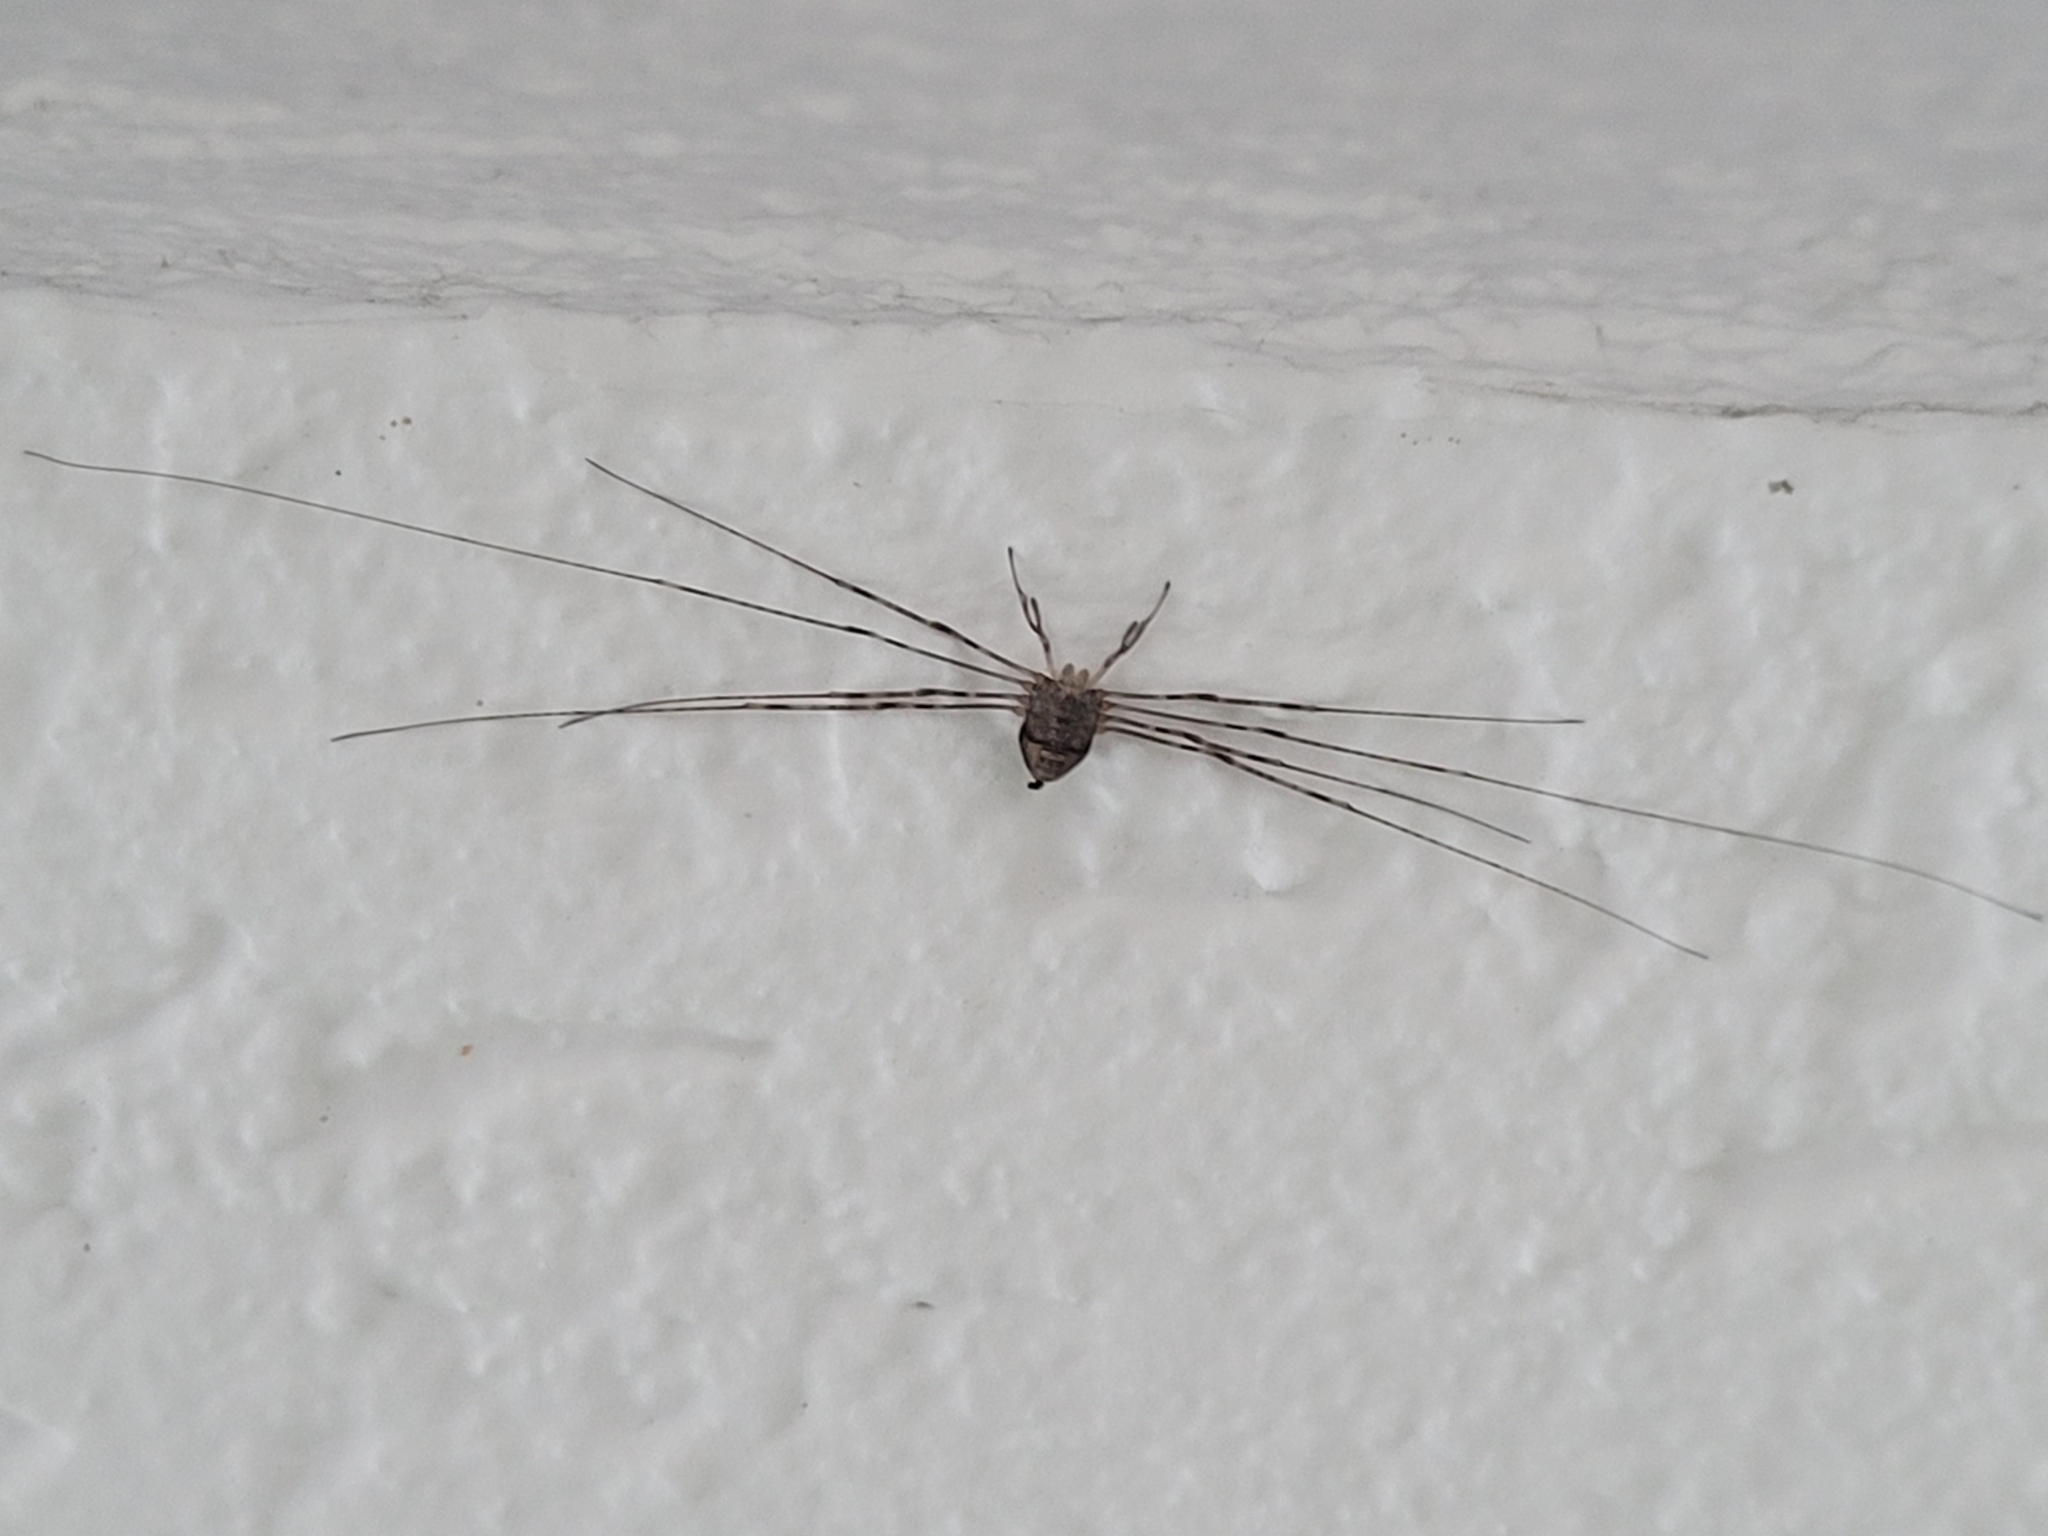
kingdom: Animalia
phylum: Arthropoda
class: Arachnida
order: Opiliones
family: Phalangiidae
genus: Dicranopalpus
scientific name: Dicranopalpus ramosus
